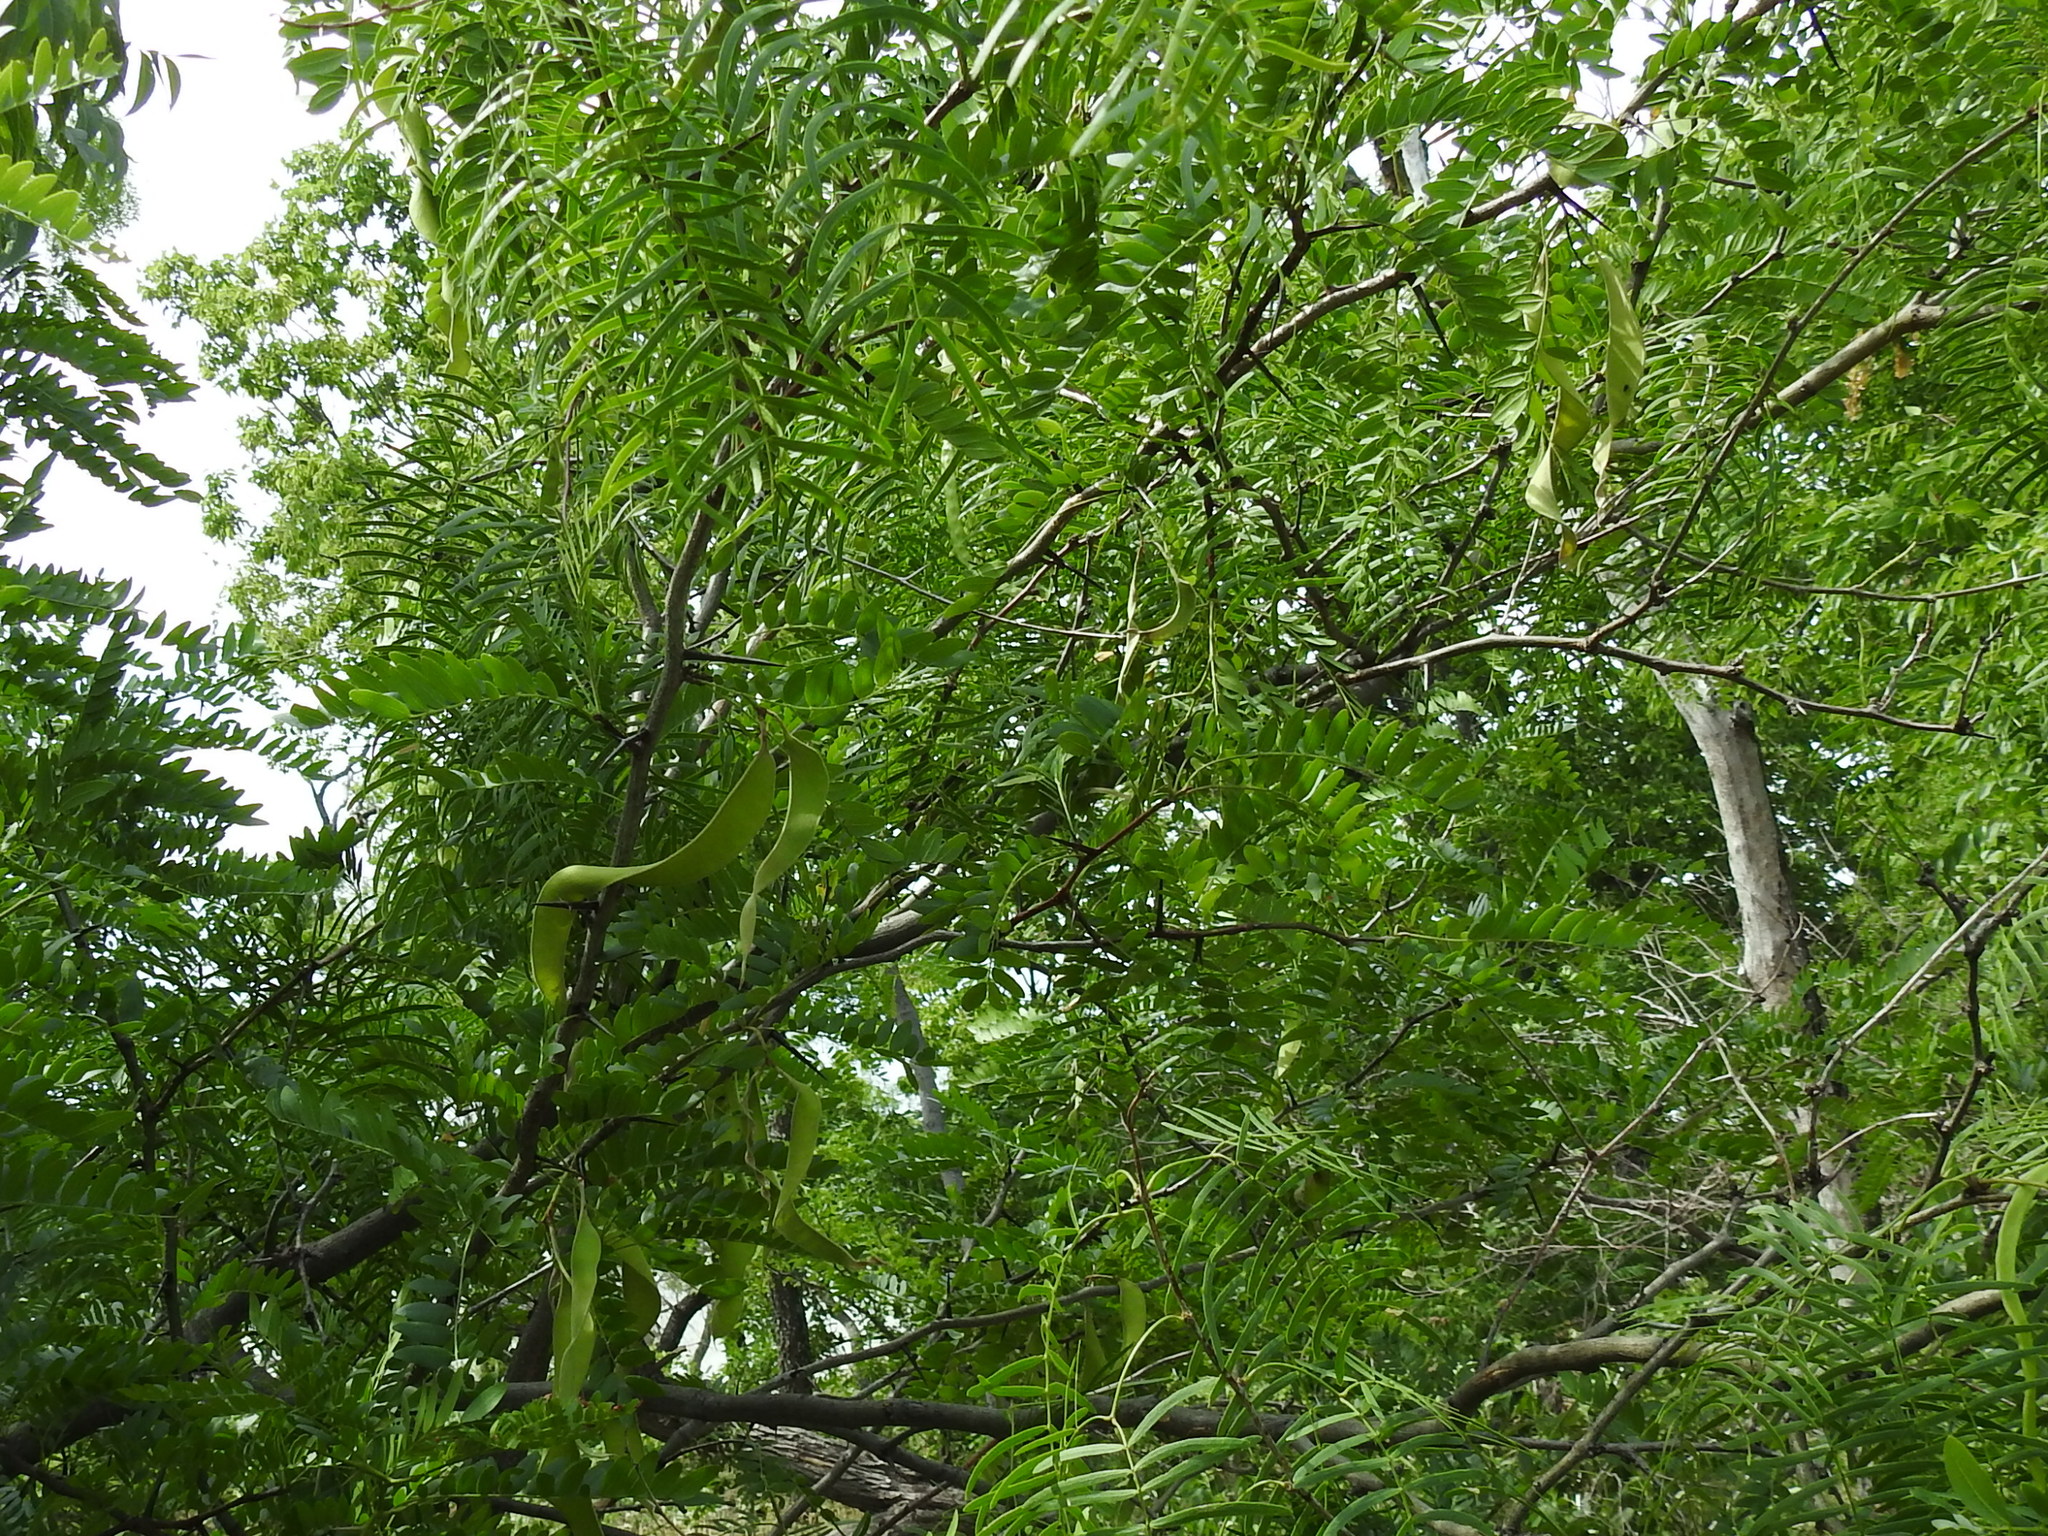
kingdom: Plantae
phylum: Tracheophyta
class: Magnoliopsida
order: Fabales
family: Fabaceae
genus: Gleditsia
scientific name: Gleditsia triacanthos
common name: Common honeylocust
